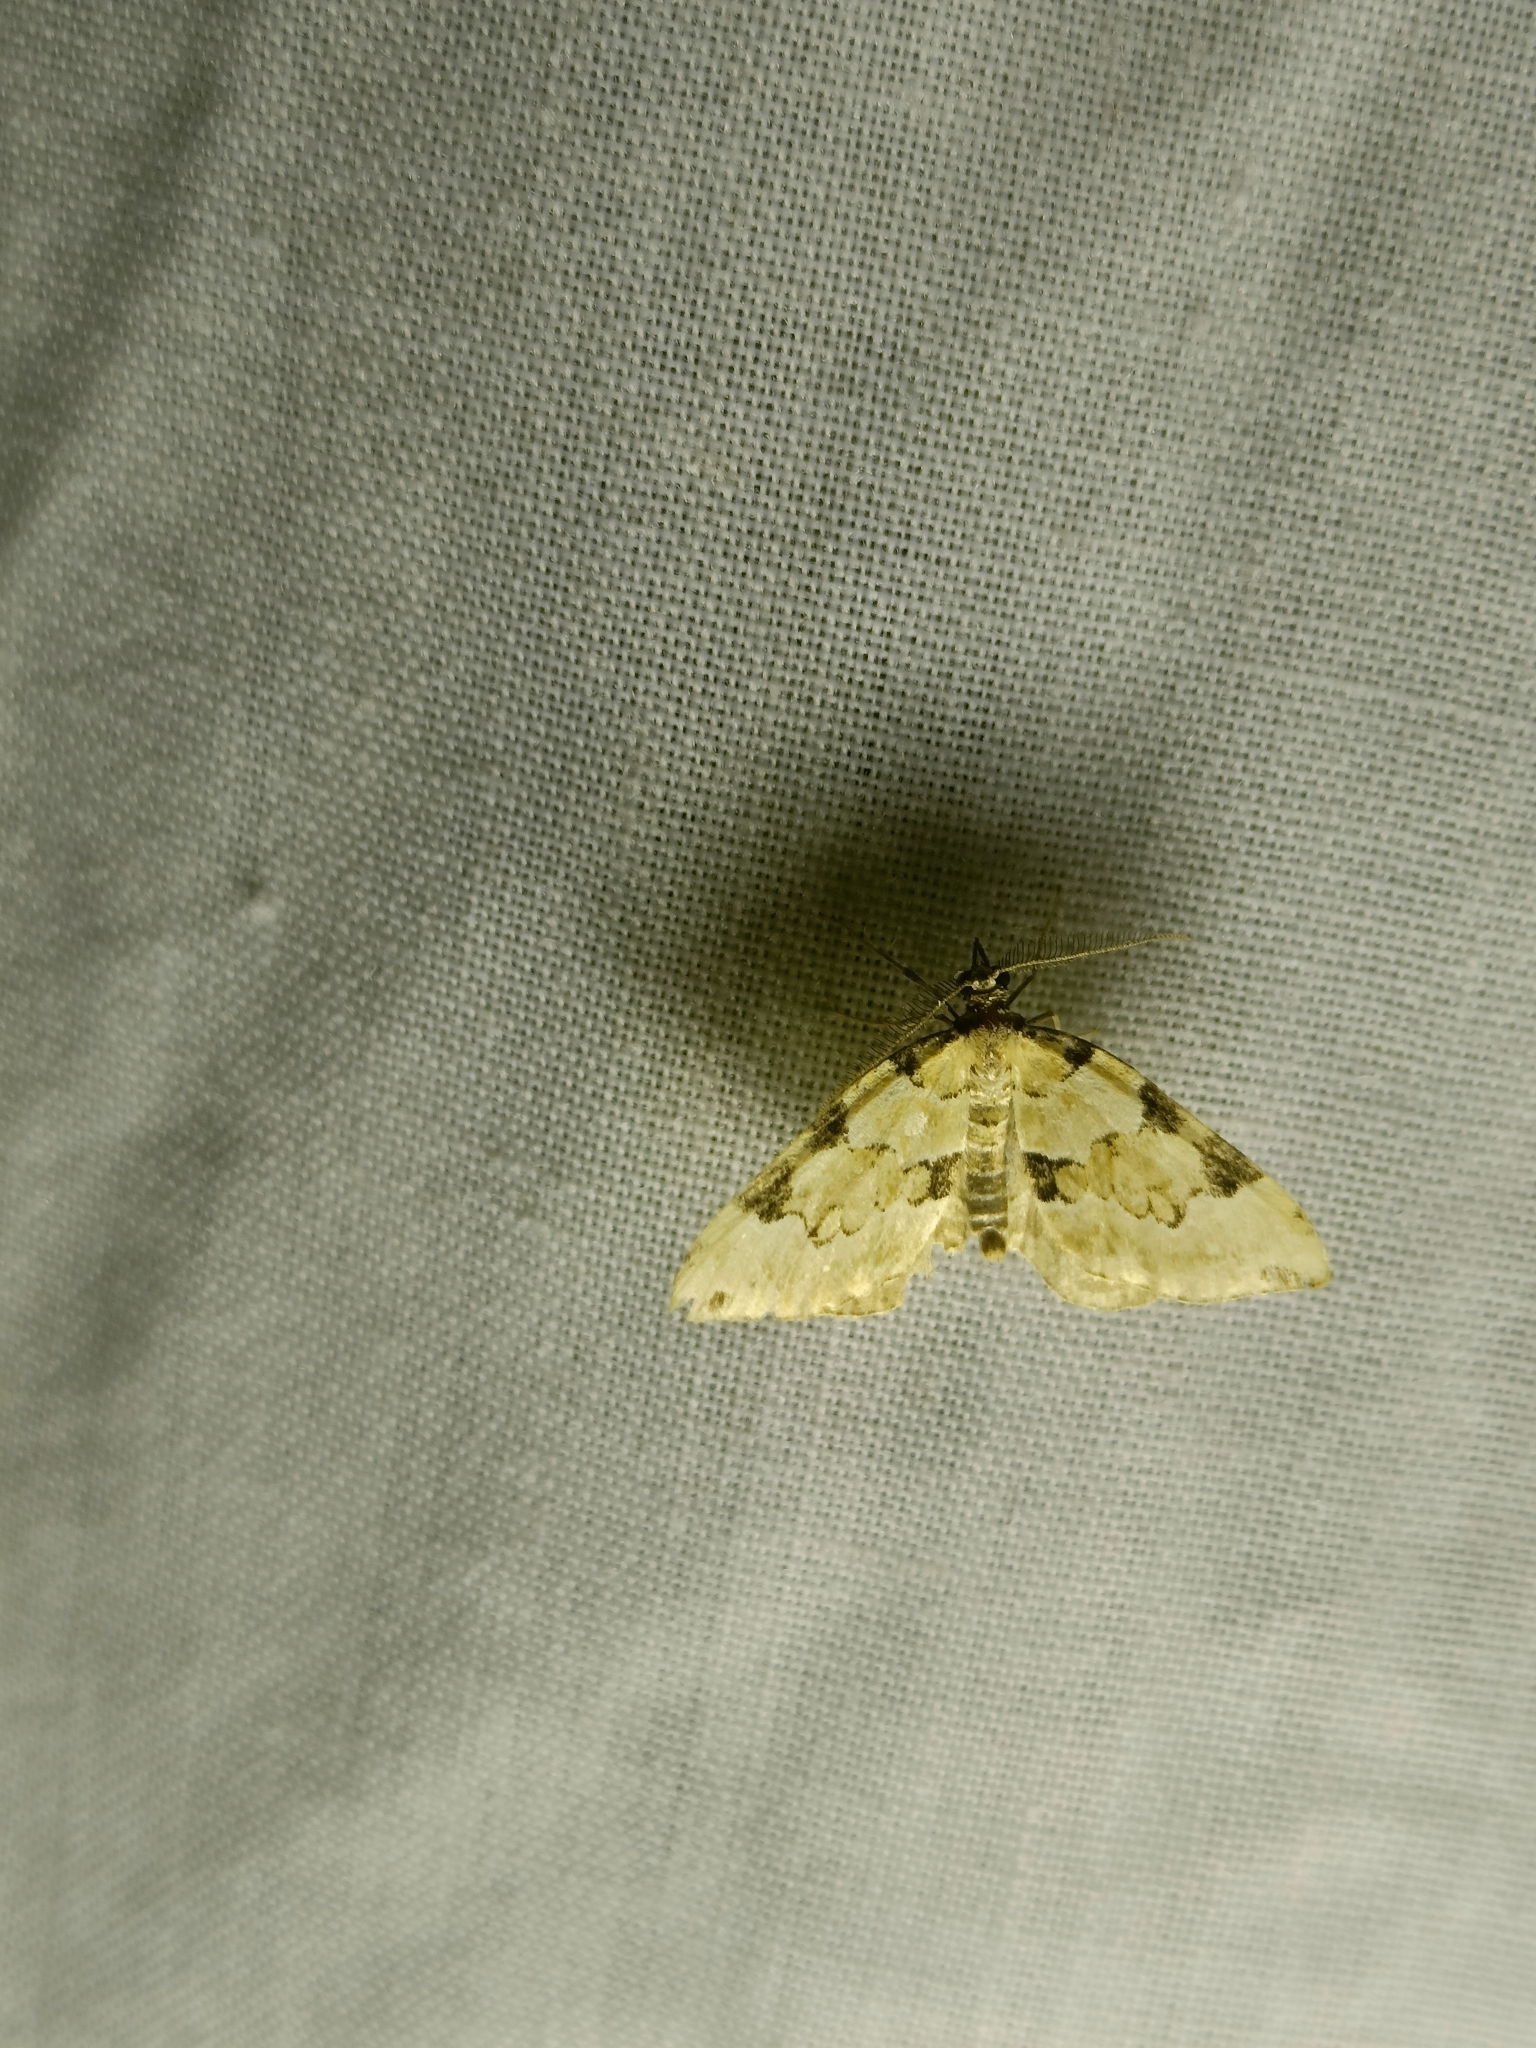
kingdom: Animalia
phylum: Arthropoda
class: Insecta
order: Lepidoptera
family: Geometridae
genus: Colostygia
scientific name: Colostygia pectinataria
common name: Green carpet
